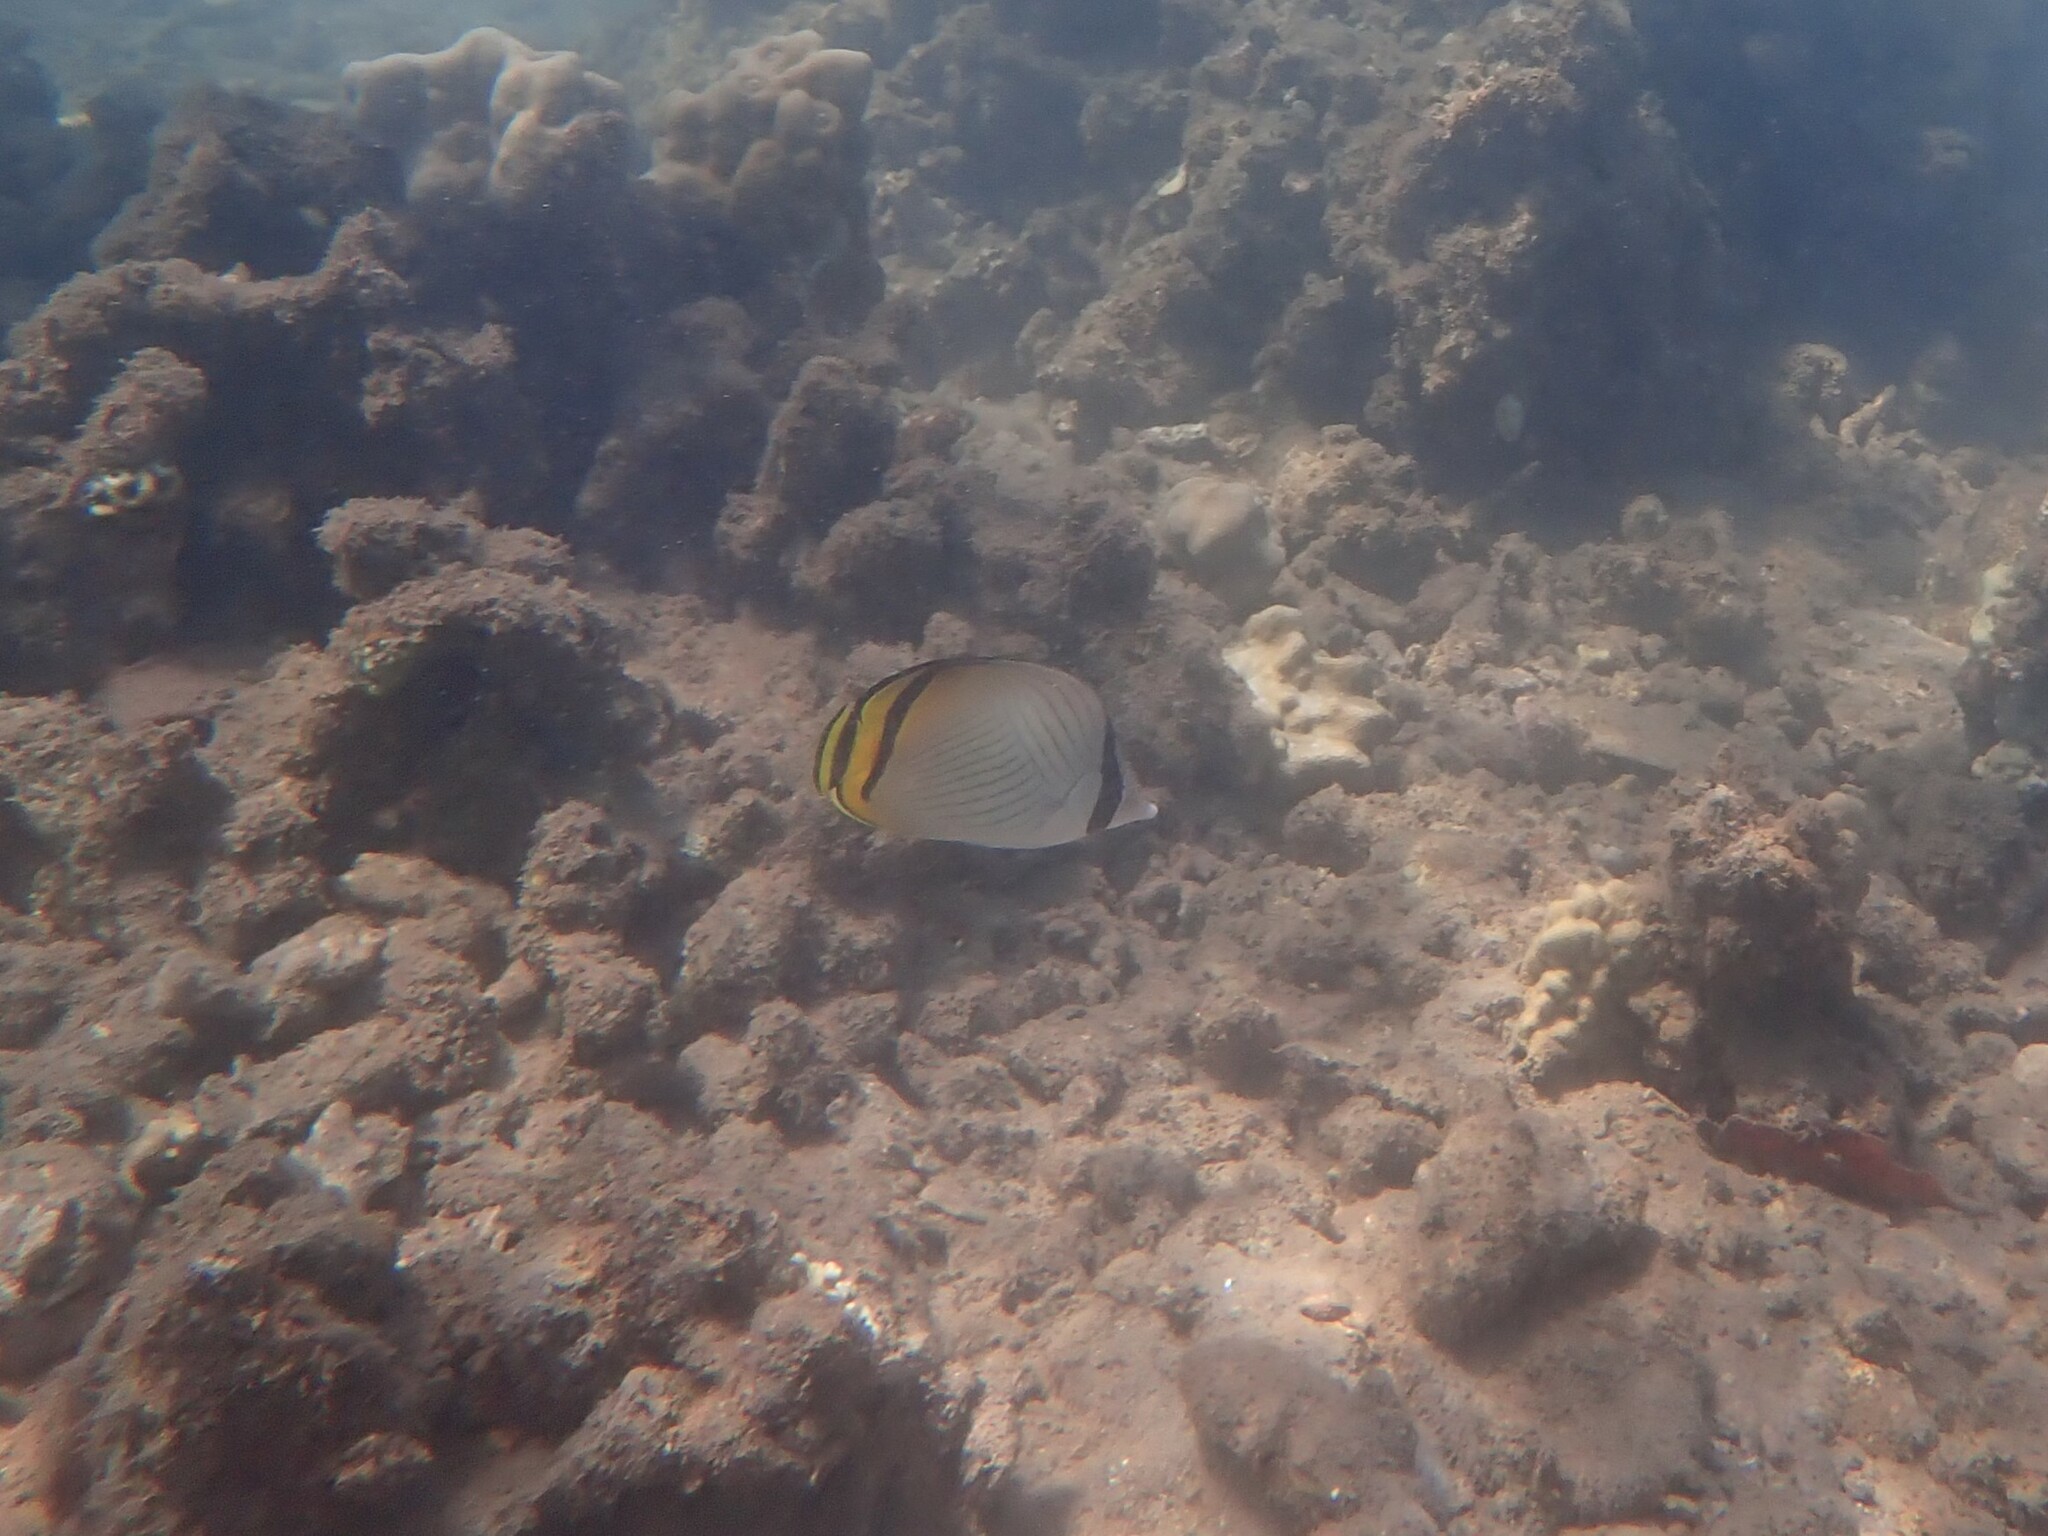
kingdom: Animalia
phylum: Chordata
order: Perciformes
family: Chaetodontidae
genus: Chaetodon
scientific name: Chaetodon vagabundus
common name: Vagabond butterflyfish
